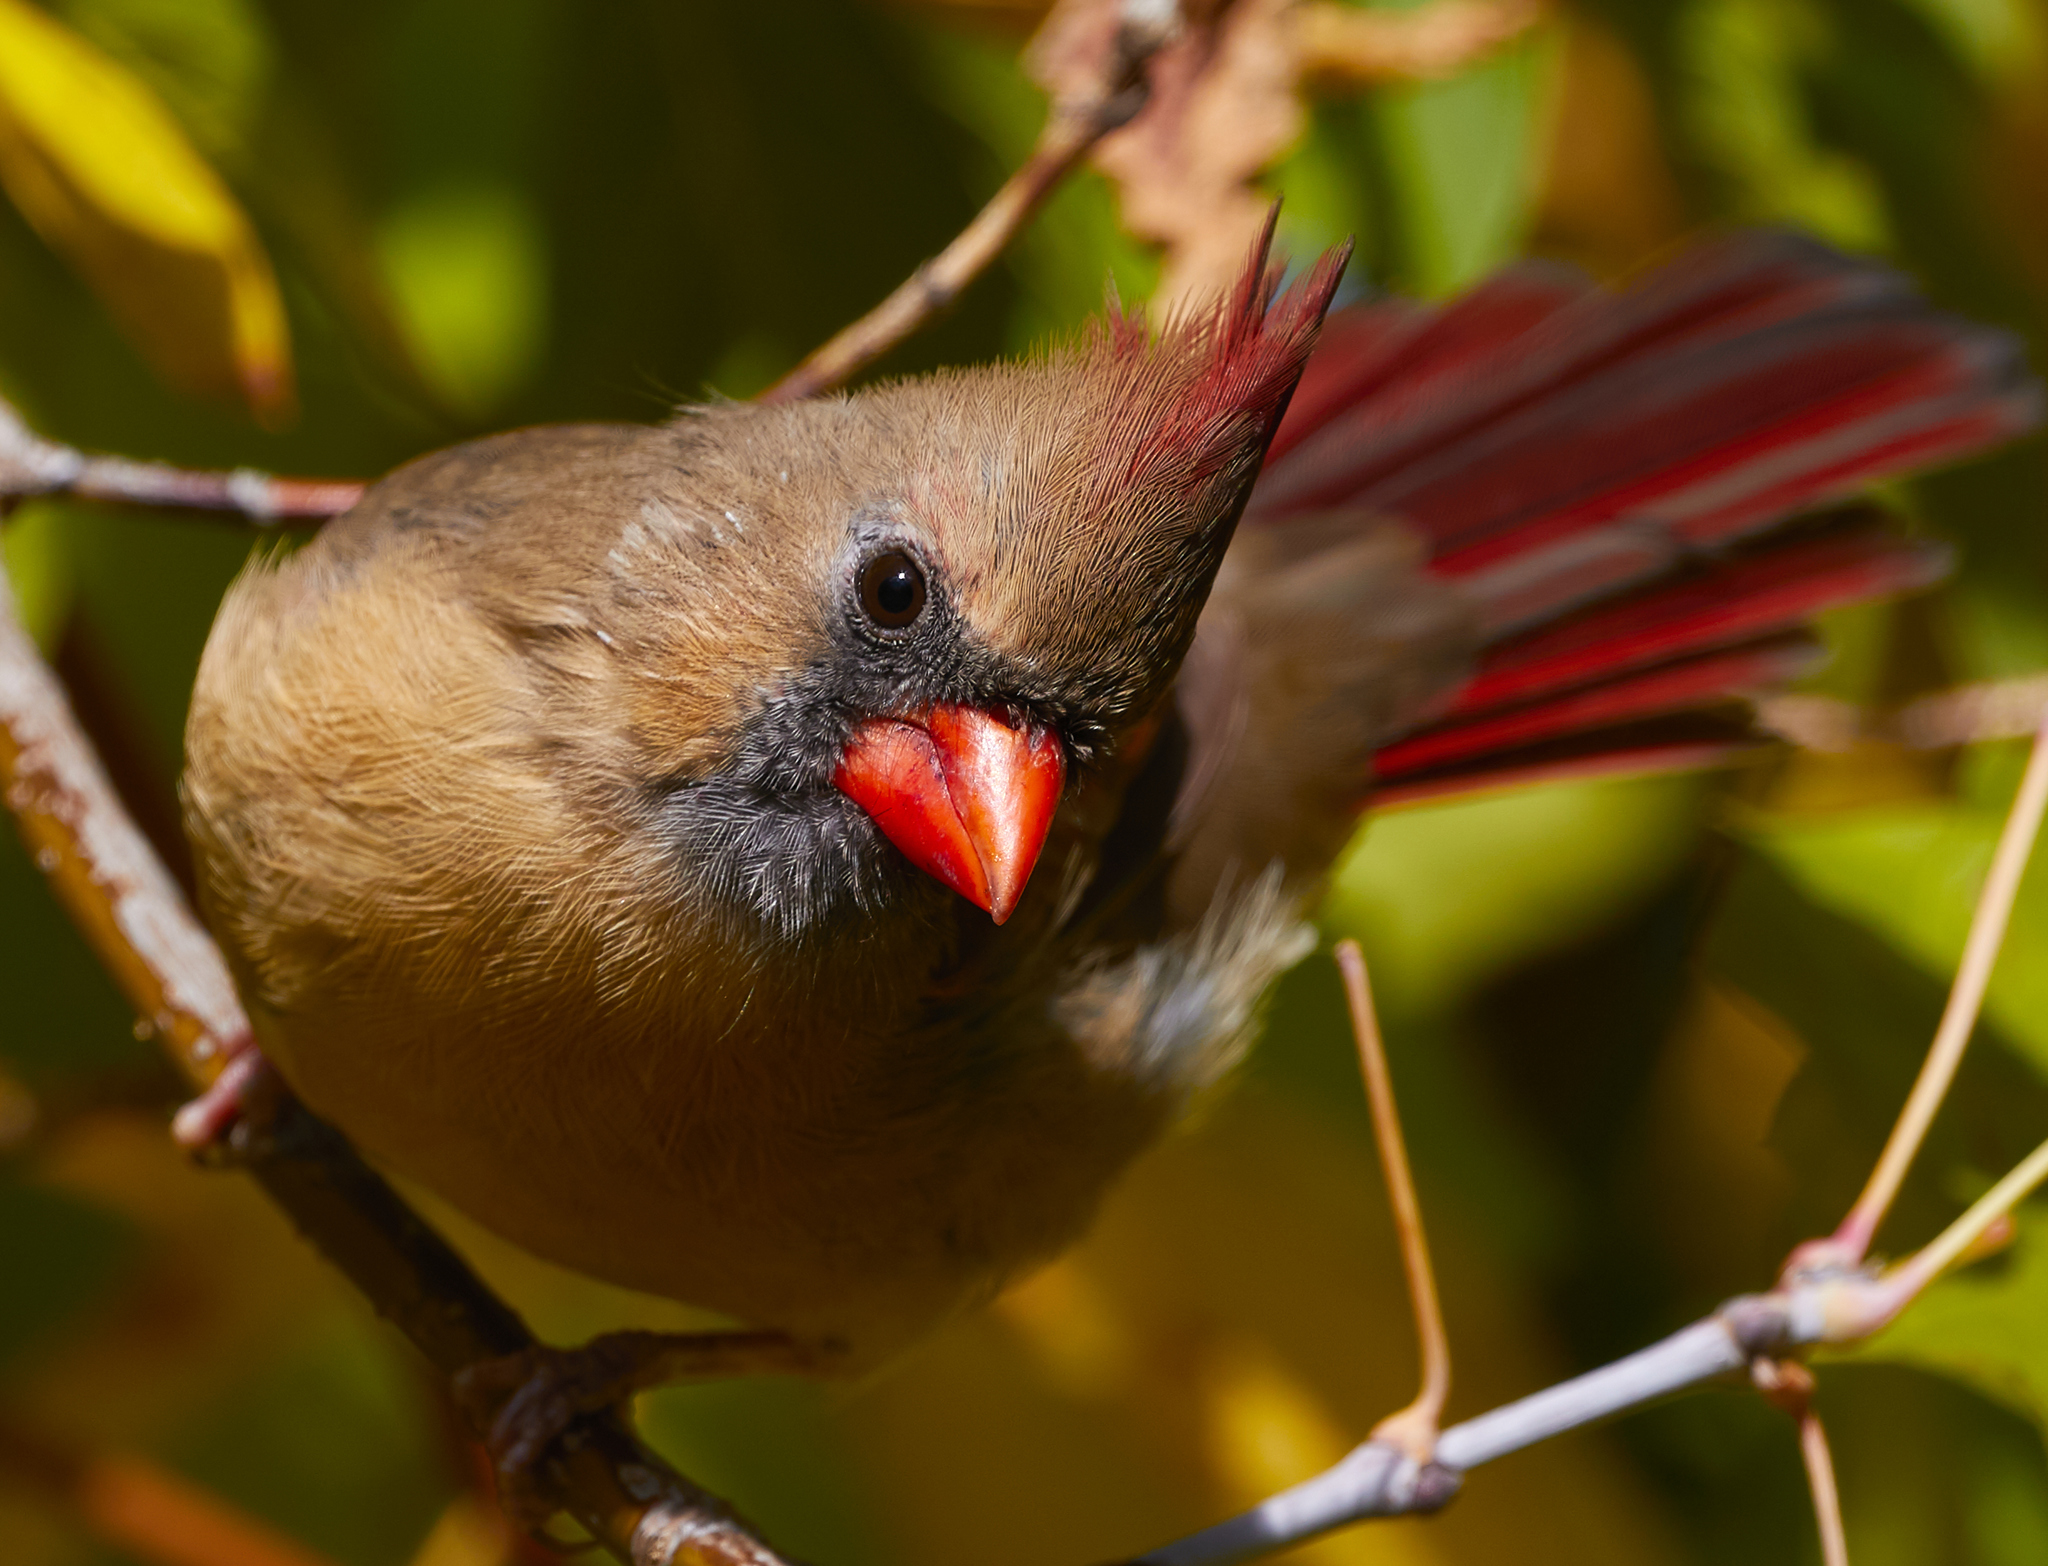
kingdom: Animalia
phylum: Chordata
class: Aves
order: Passeriformes
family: Cardinalidae
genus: Cardinalis
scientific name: Cardinalis cardinalis
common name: Northern cardinal
